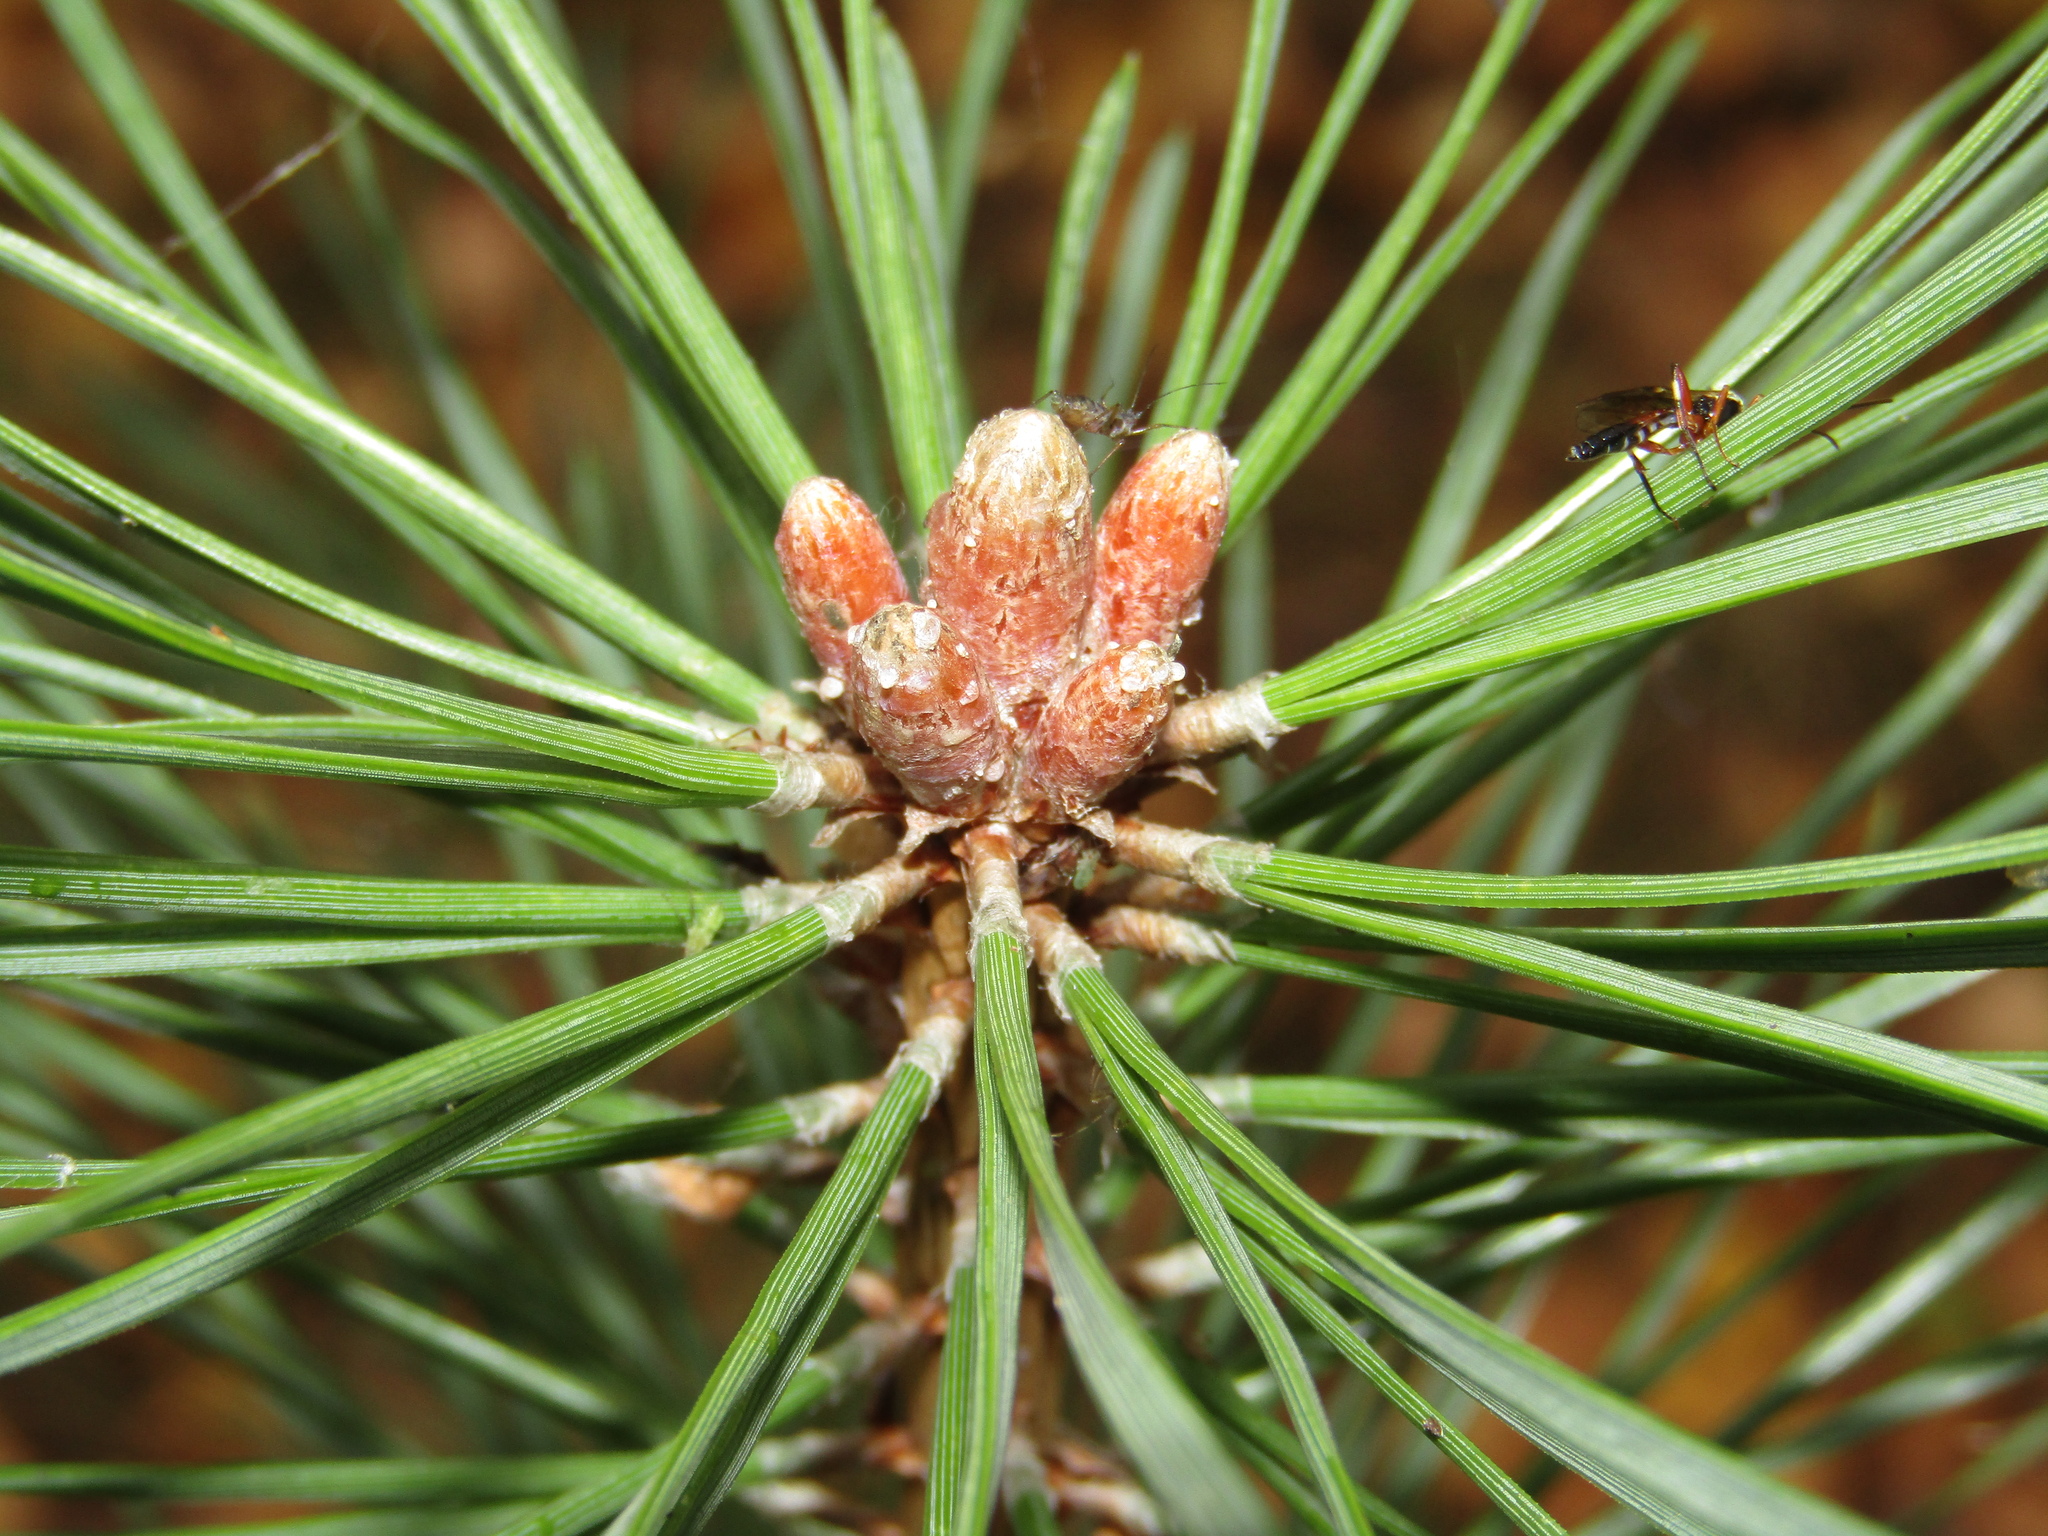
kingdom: Plantae
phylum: Tracheophyta
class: Pinopsida
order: Pinales
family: Pinaceae
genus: Pinus
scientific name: Pinus sylvestris
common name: Scots pine
